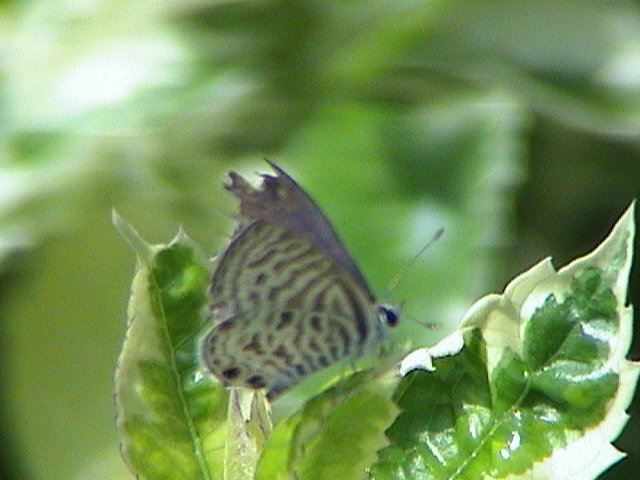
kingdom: Animalia
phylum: Arthropoda
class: Insecta
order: Lepidoptera
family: Lycaenidae
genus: Leptotes
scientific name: Leptotes plinius
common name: Zebra blue
